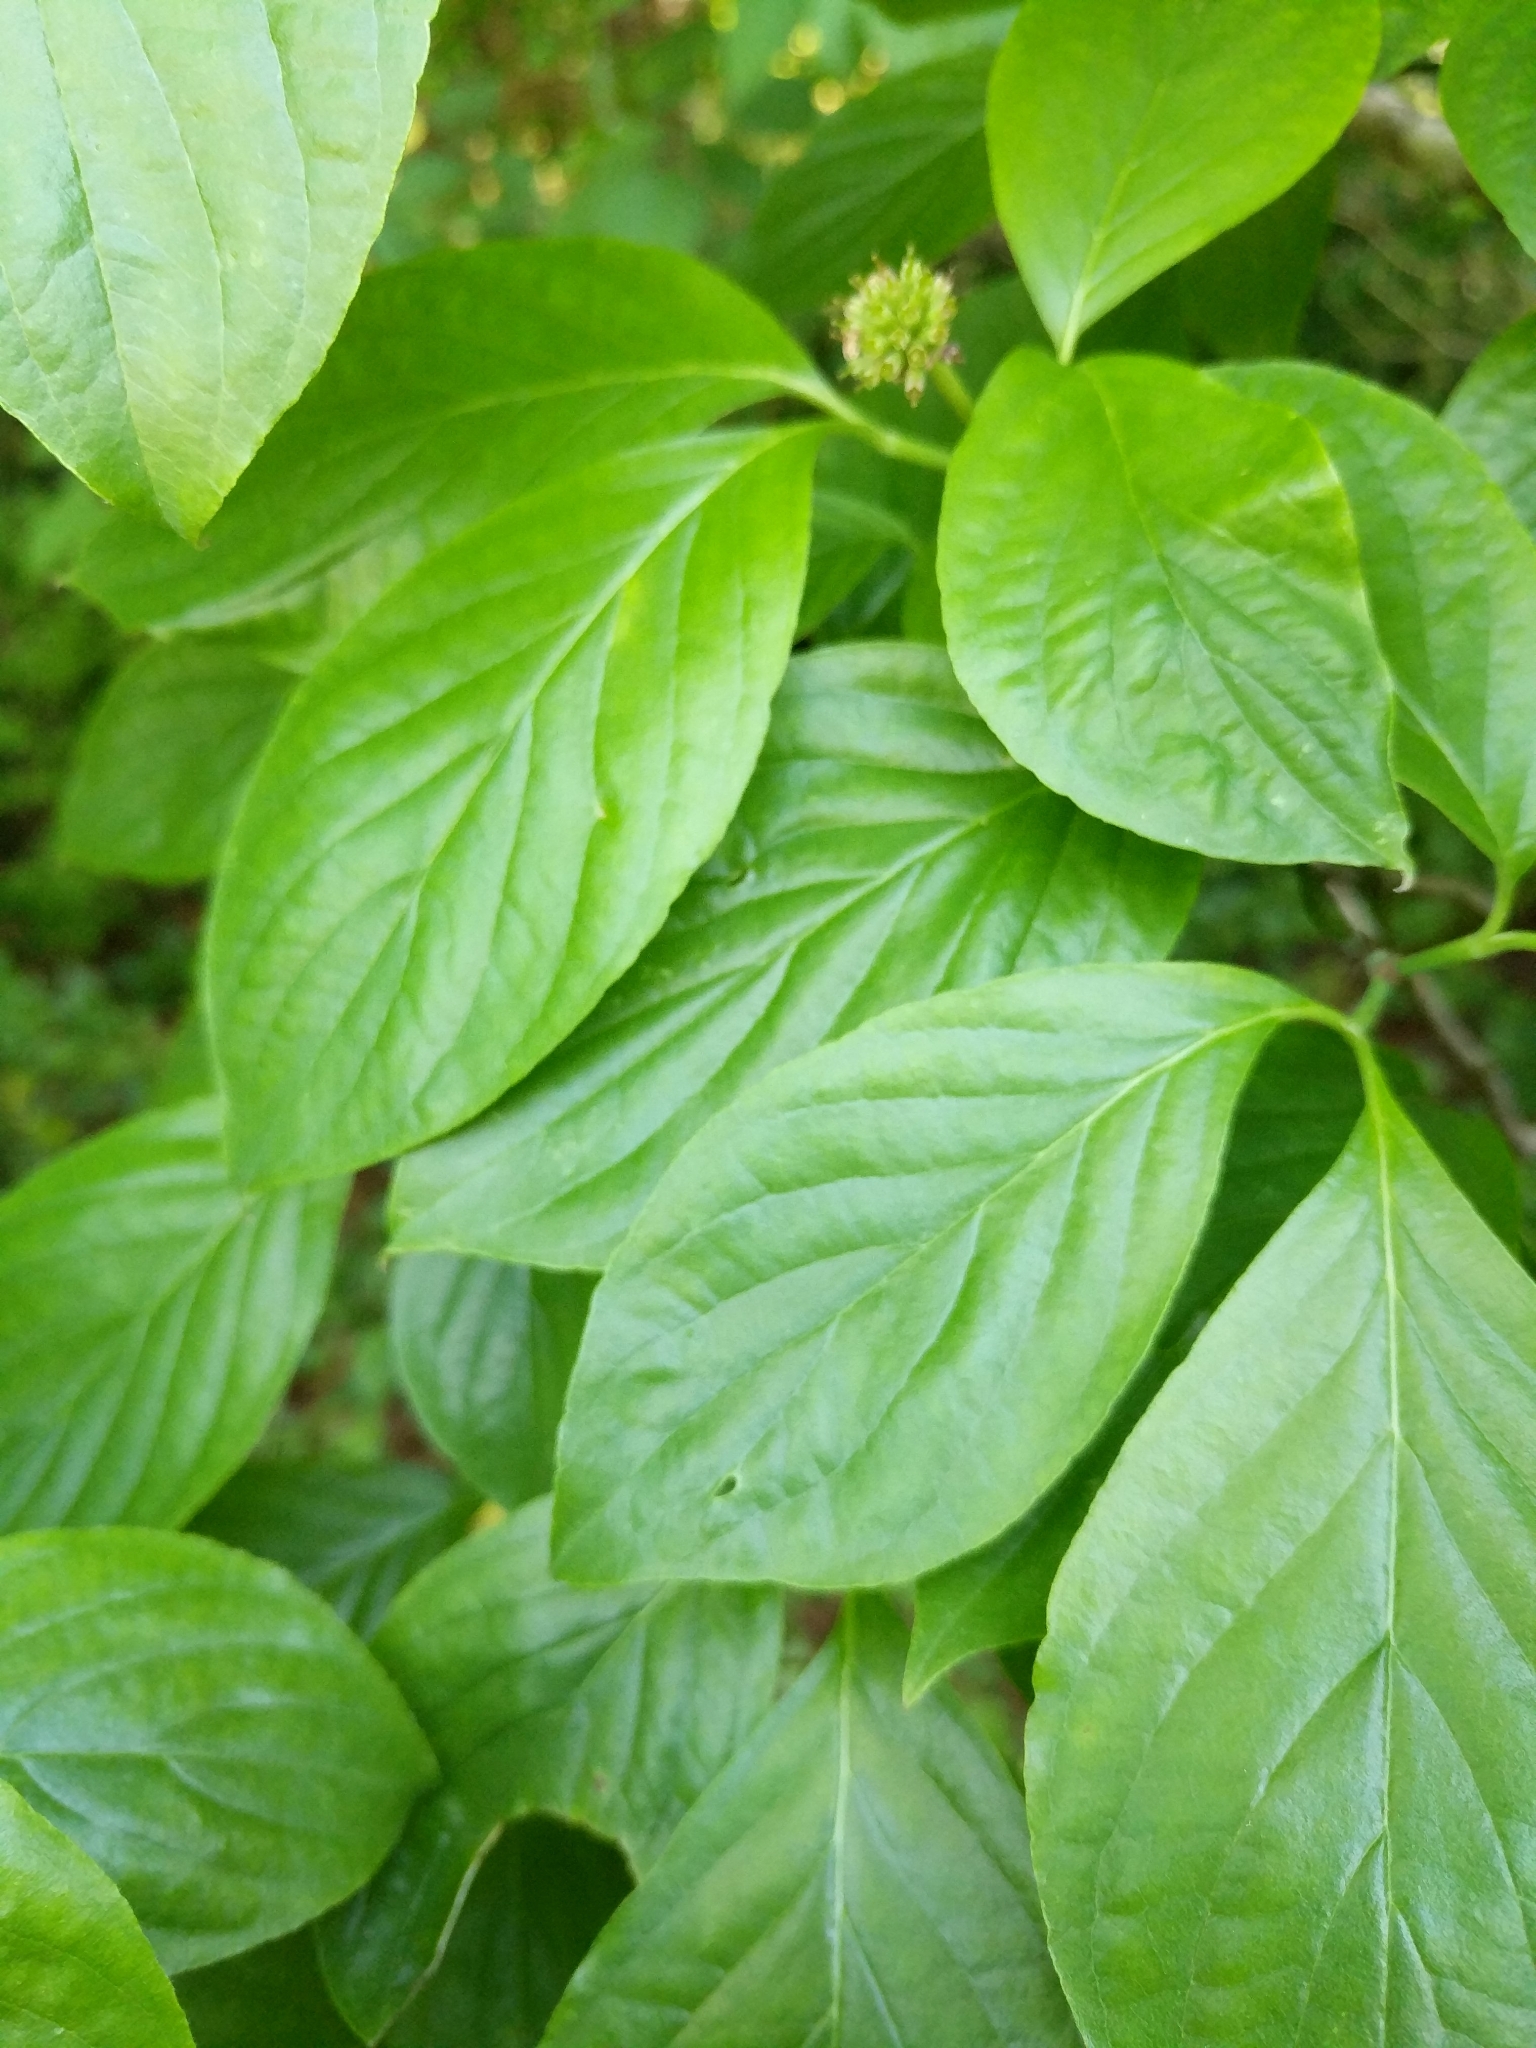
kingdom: Plantae
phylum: Tracheophyta
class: Magnoliopsida
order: Cornales
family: Cornaceae
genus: Cornus
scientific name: Cornus florida
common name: Flowering dogwood
